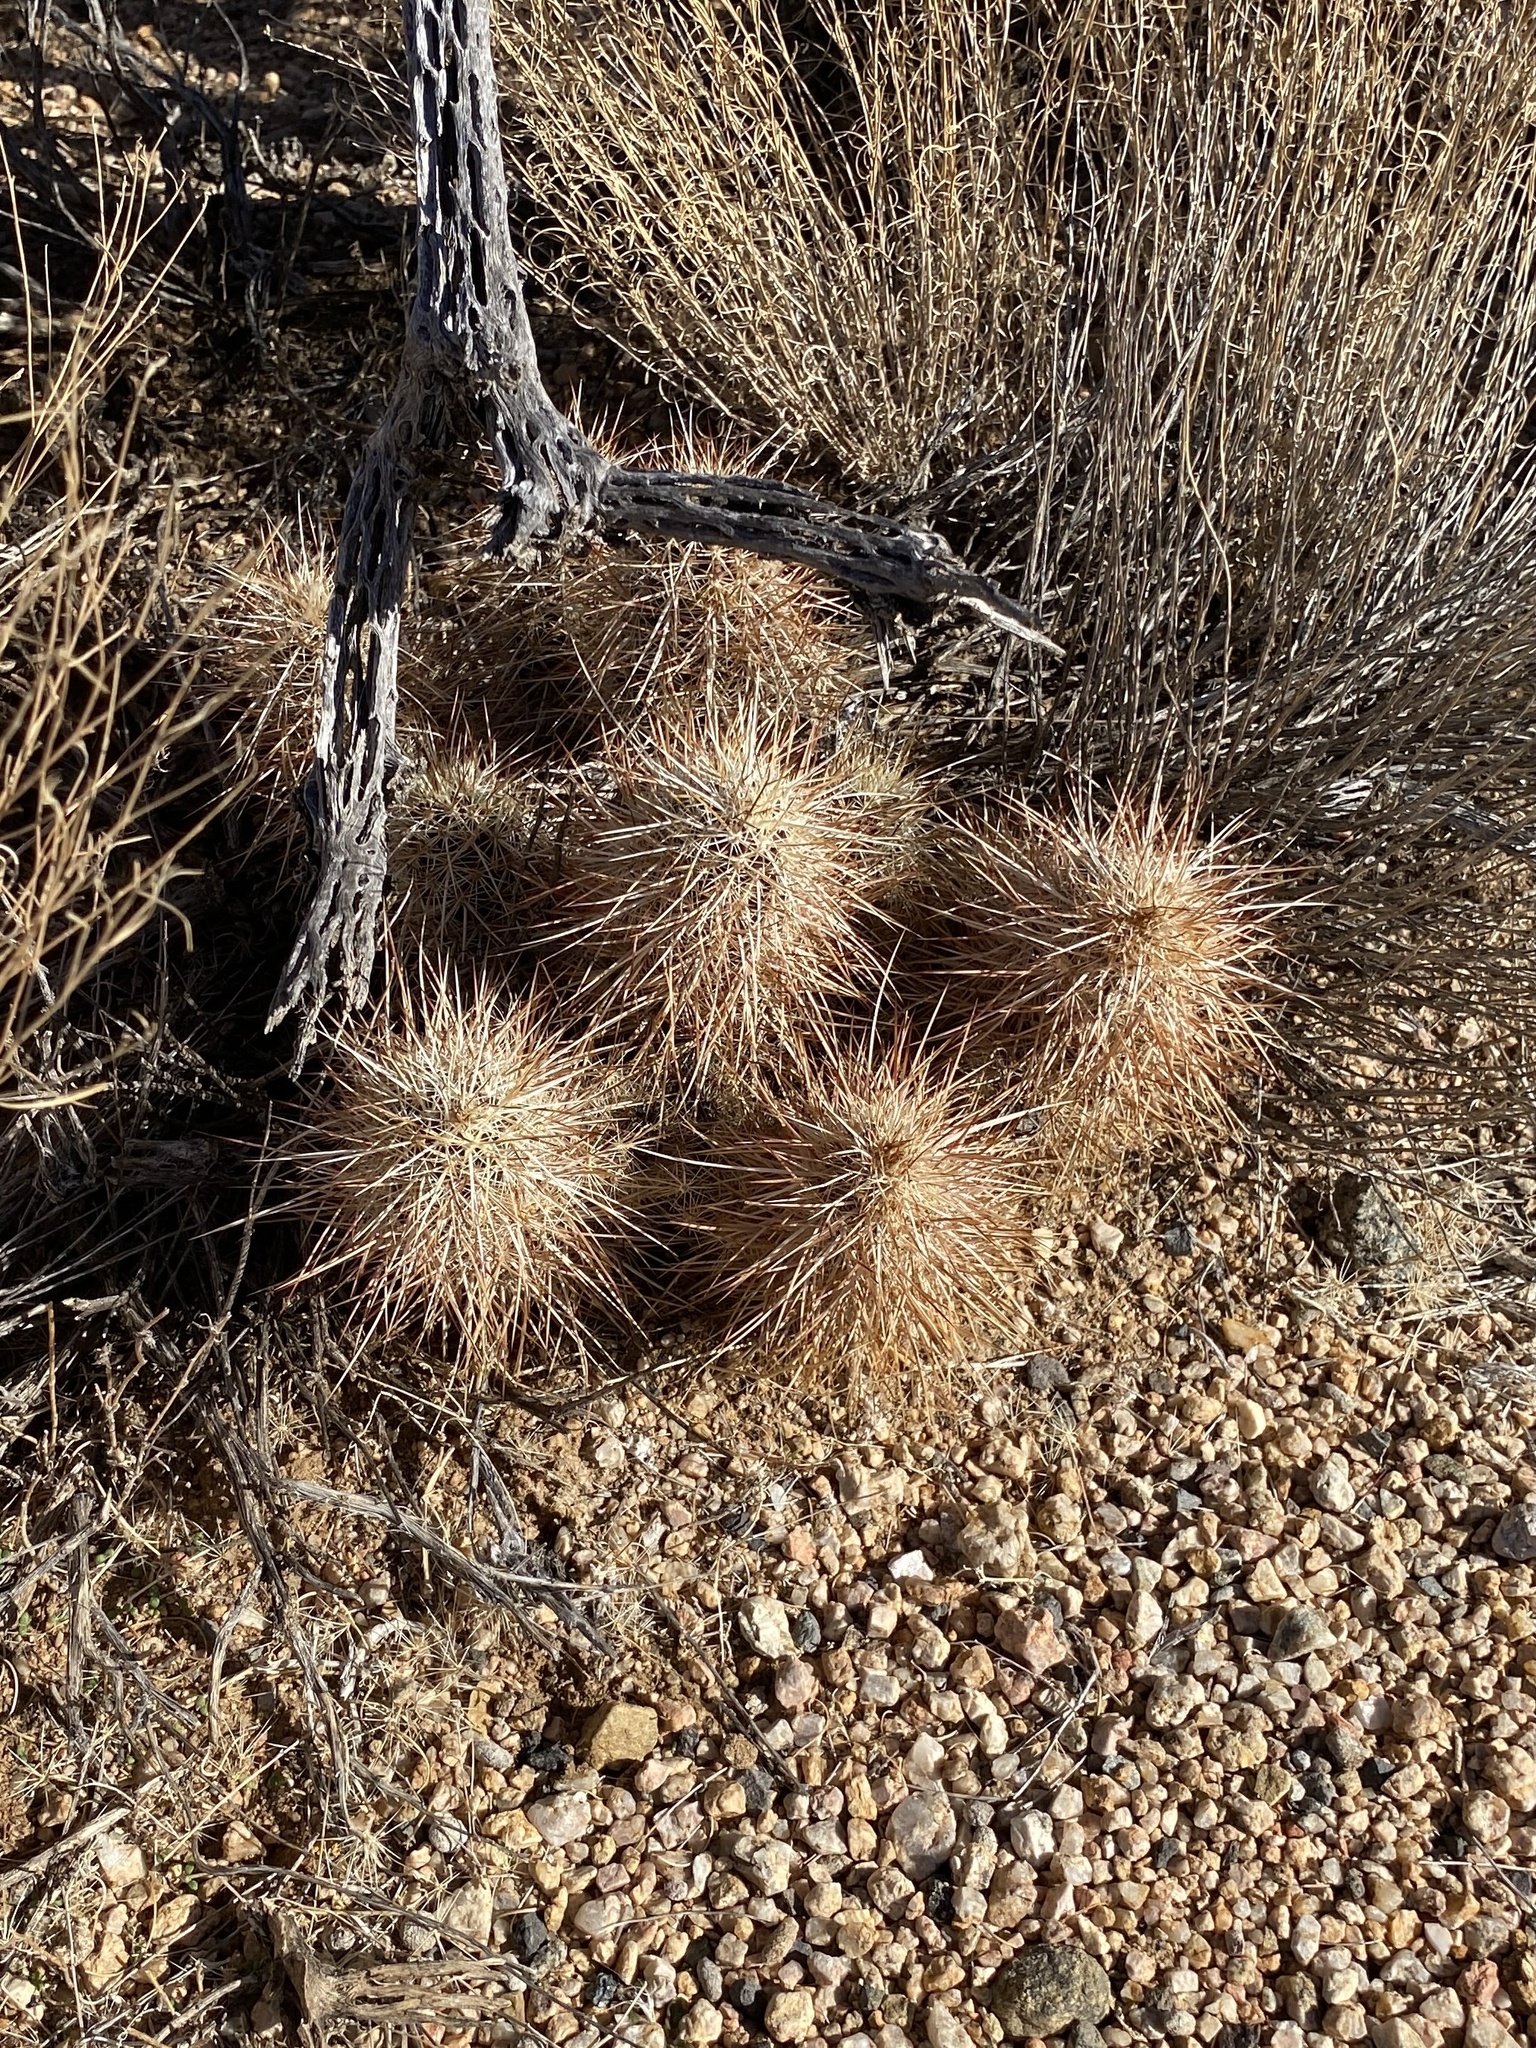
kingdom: Plantae
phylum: Tracheophyta
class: Magnoliopsida
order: Caryophyllales
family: Cactaceae
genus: Echinocereus
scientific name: Echinocereus engelmannii
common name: Engelmann's hedgehog cactus
